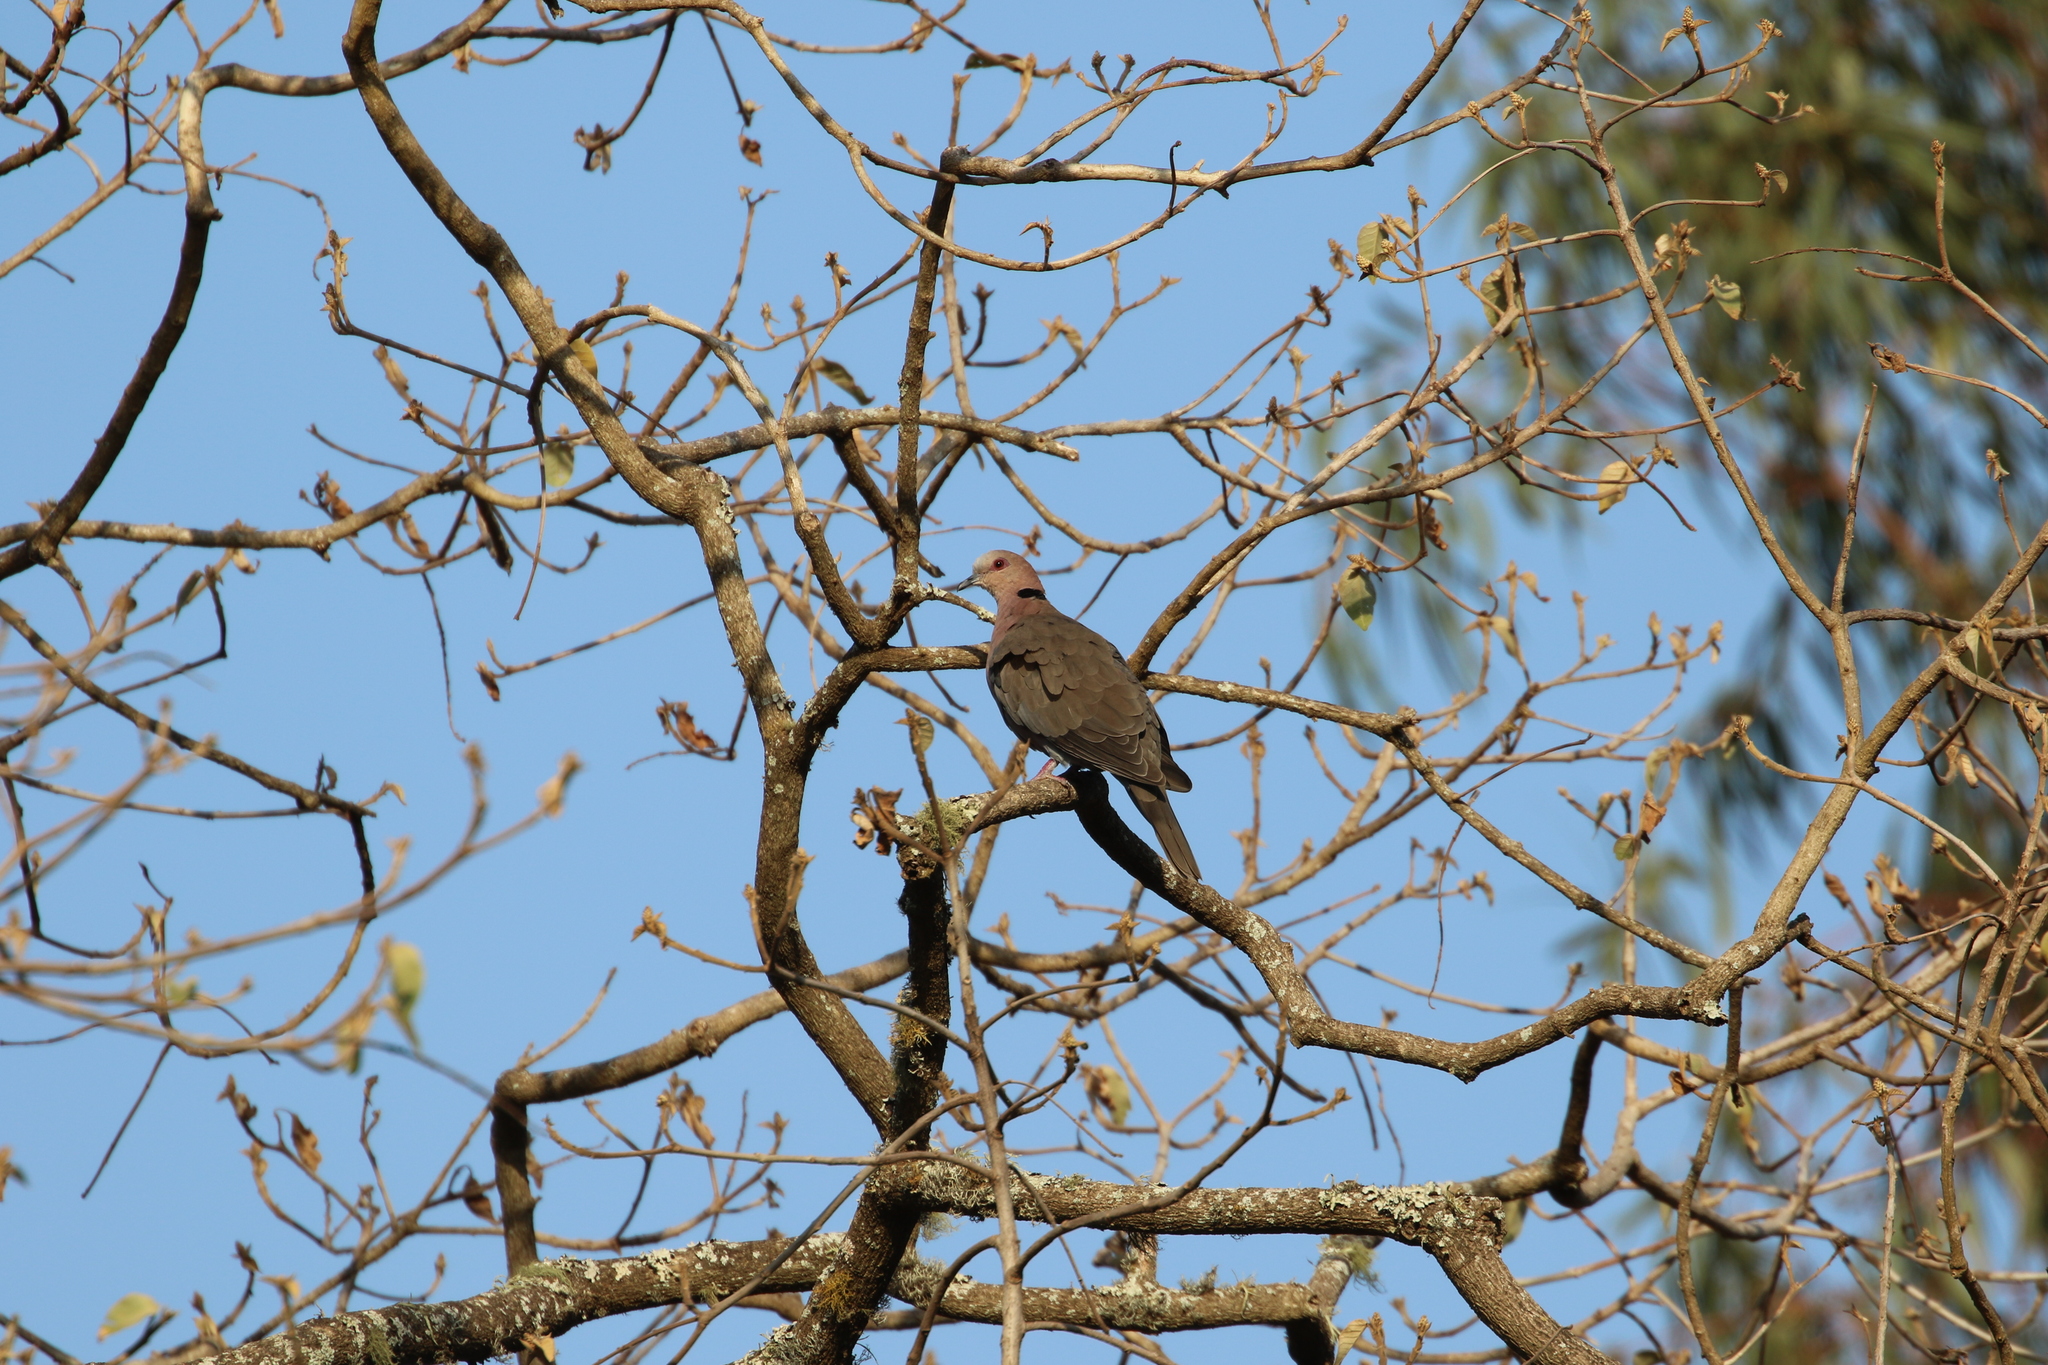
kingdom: Animalia
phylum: Chordata
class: Aves
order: Columbiformes
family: Columbidae
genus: Streptopelia
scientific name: Streptopelia semitorquata
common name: Red-eyed dove
